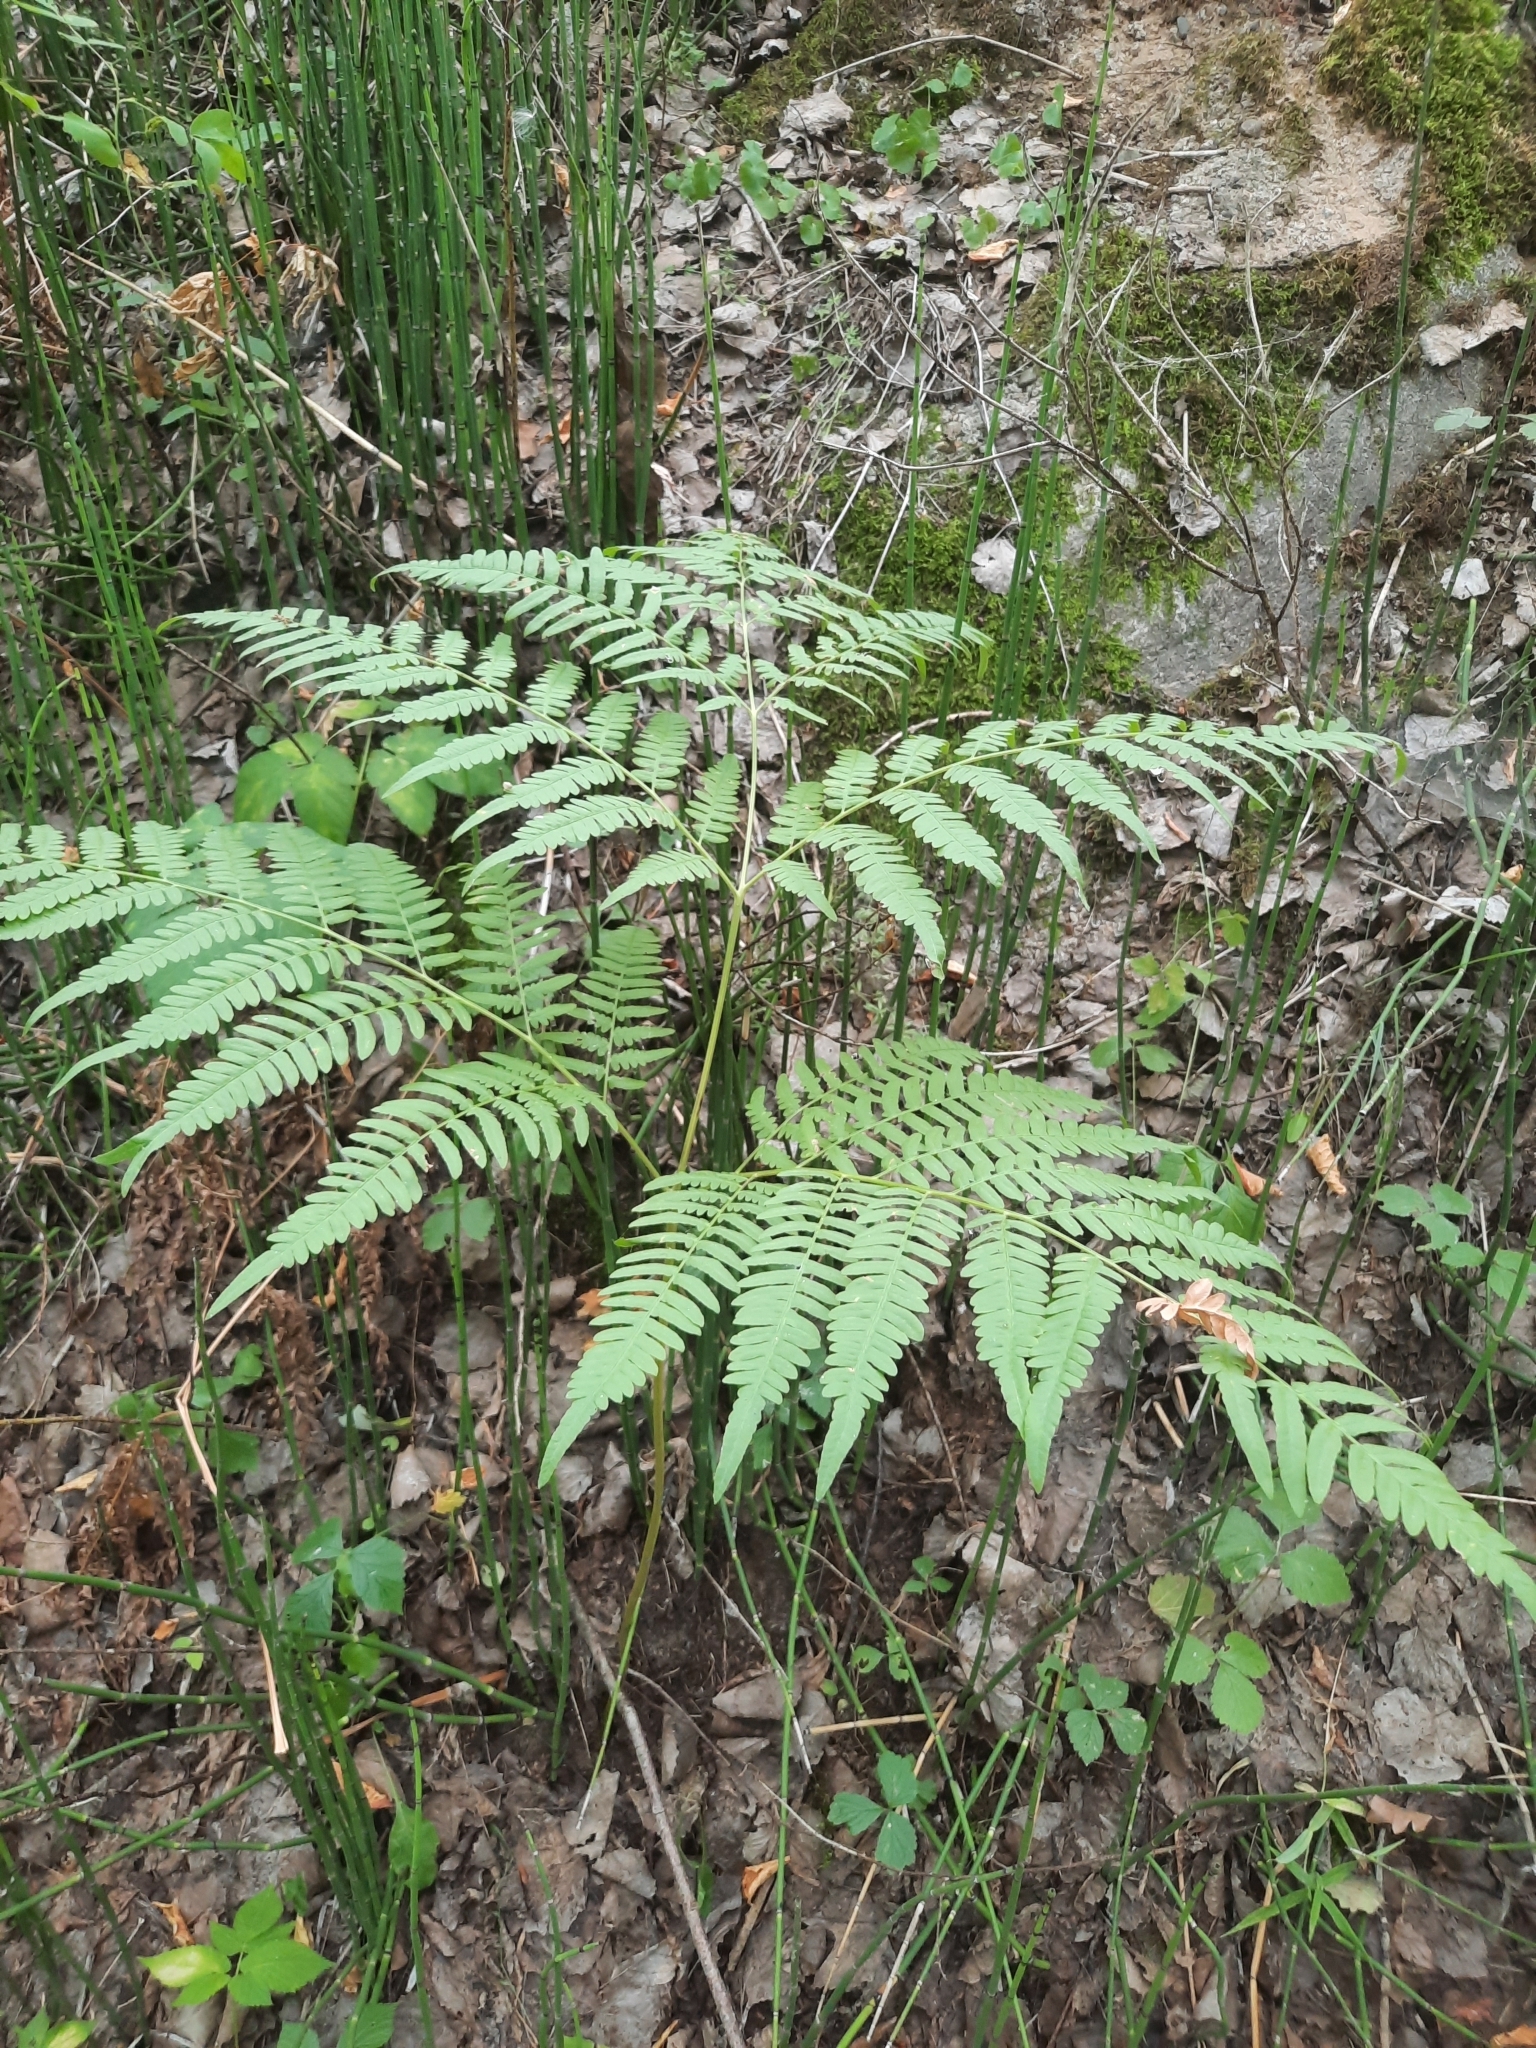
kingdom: Plantae
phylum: Tracheophyta
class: Polypodiopsida
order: Polypodiales
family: Dennstaedtiaceae
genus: Pteridium
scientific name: Pteridium aquilinum
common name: Bracken
